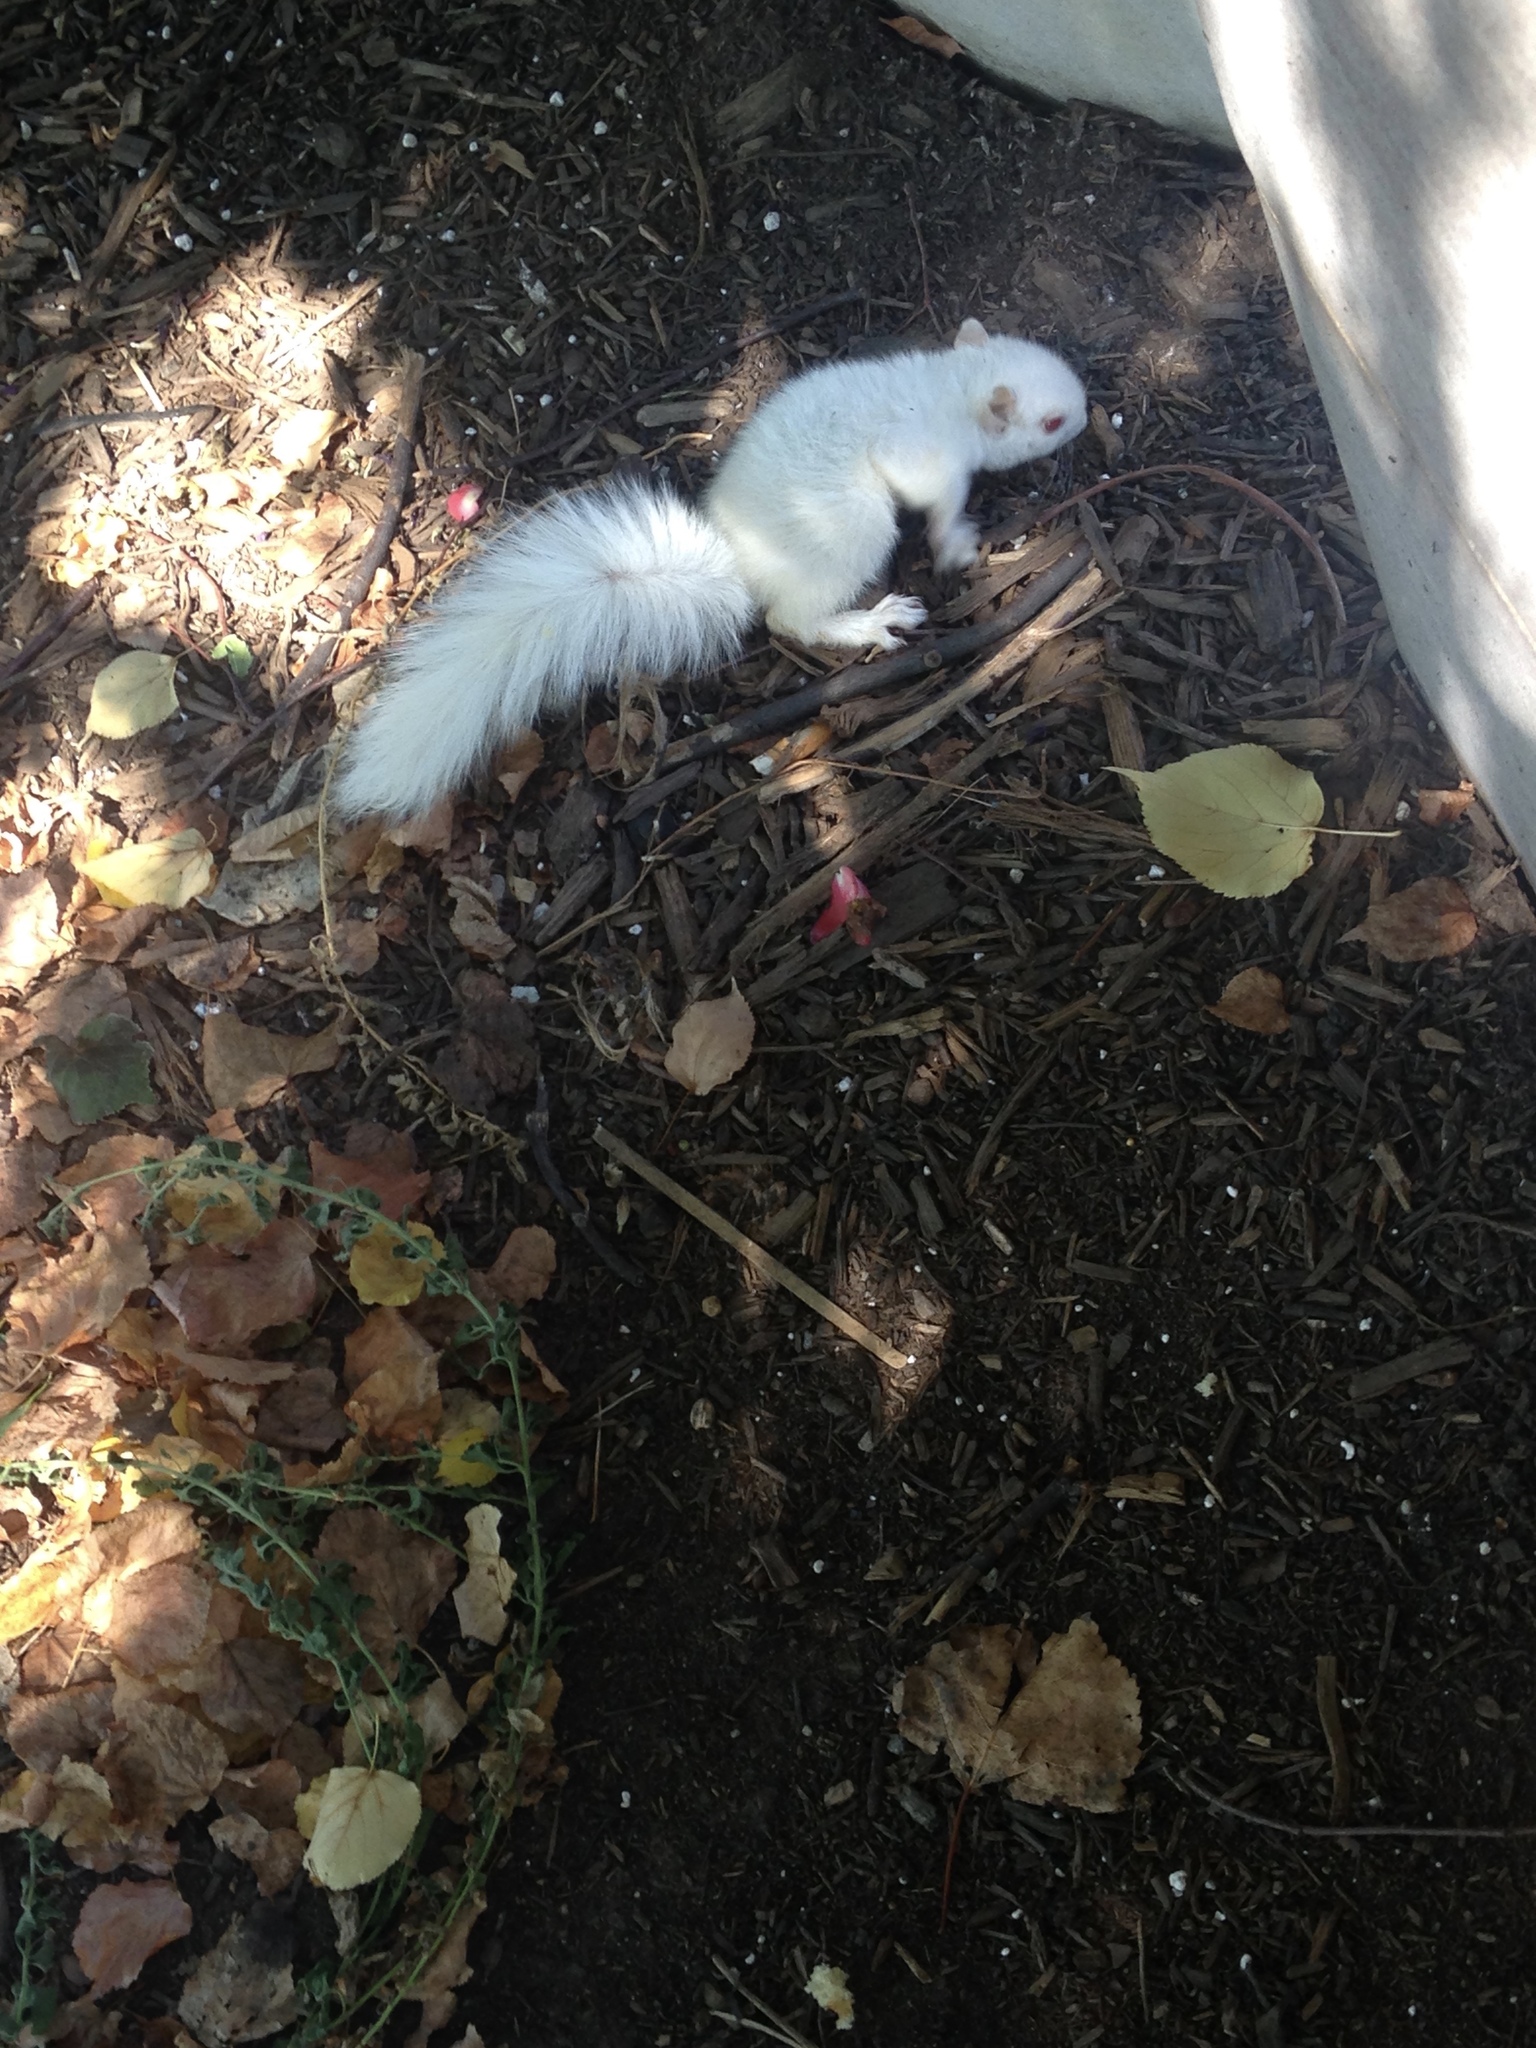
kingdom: Animalia
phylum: Chordata
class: Mammalia
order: Rodentia
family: Sciuridae
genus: Sciurus
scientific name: Sciurus carolinensis
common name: Eastern gray squirrel
